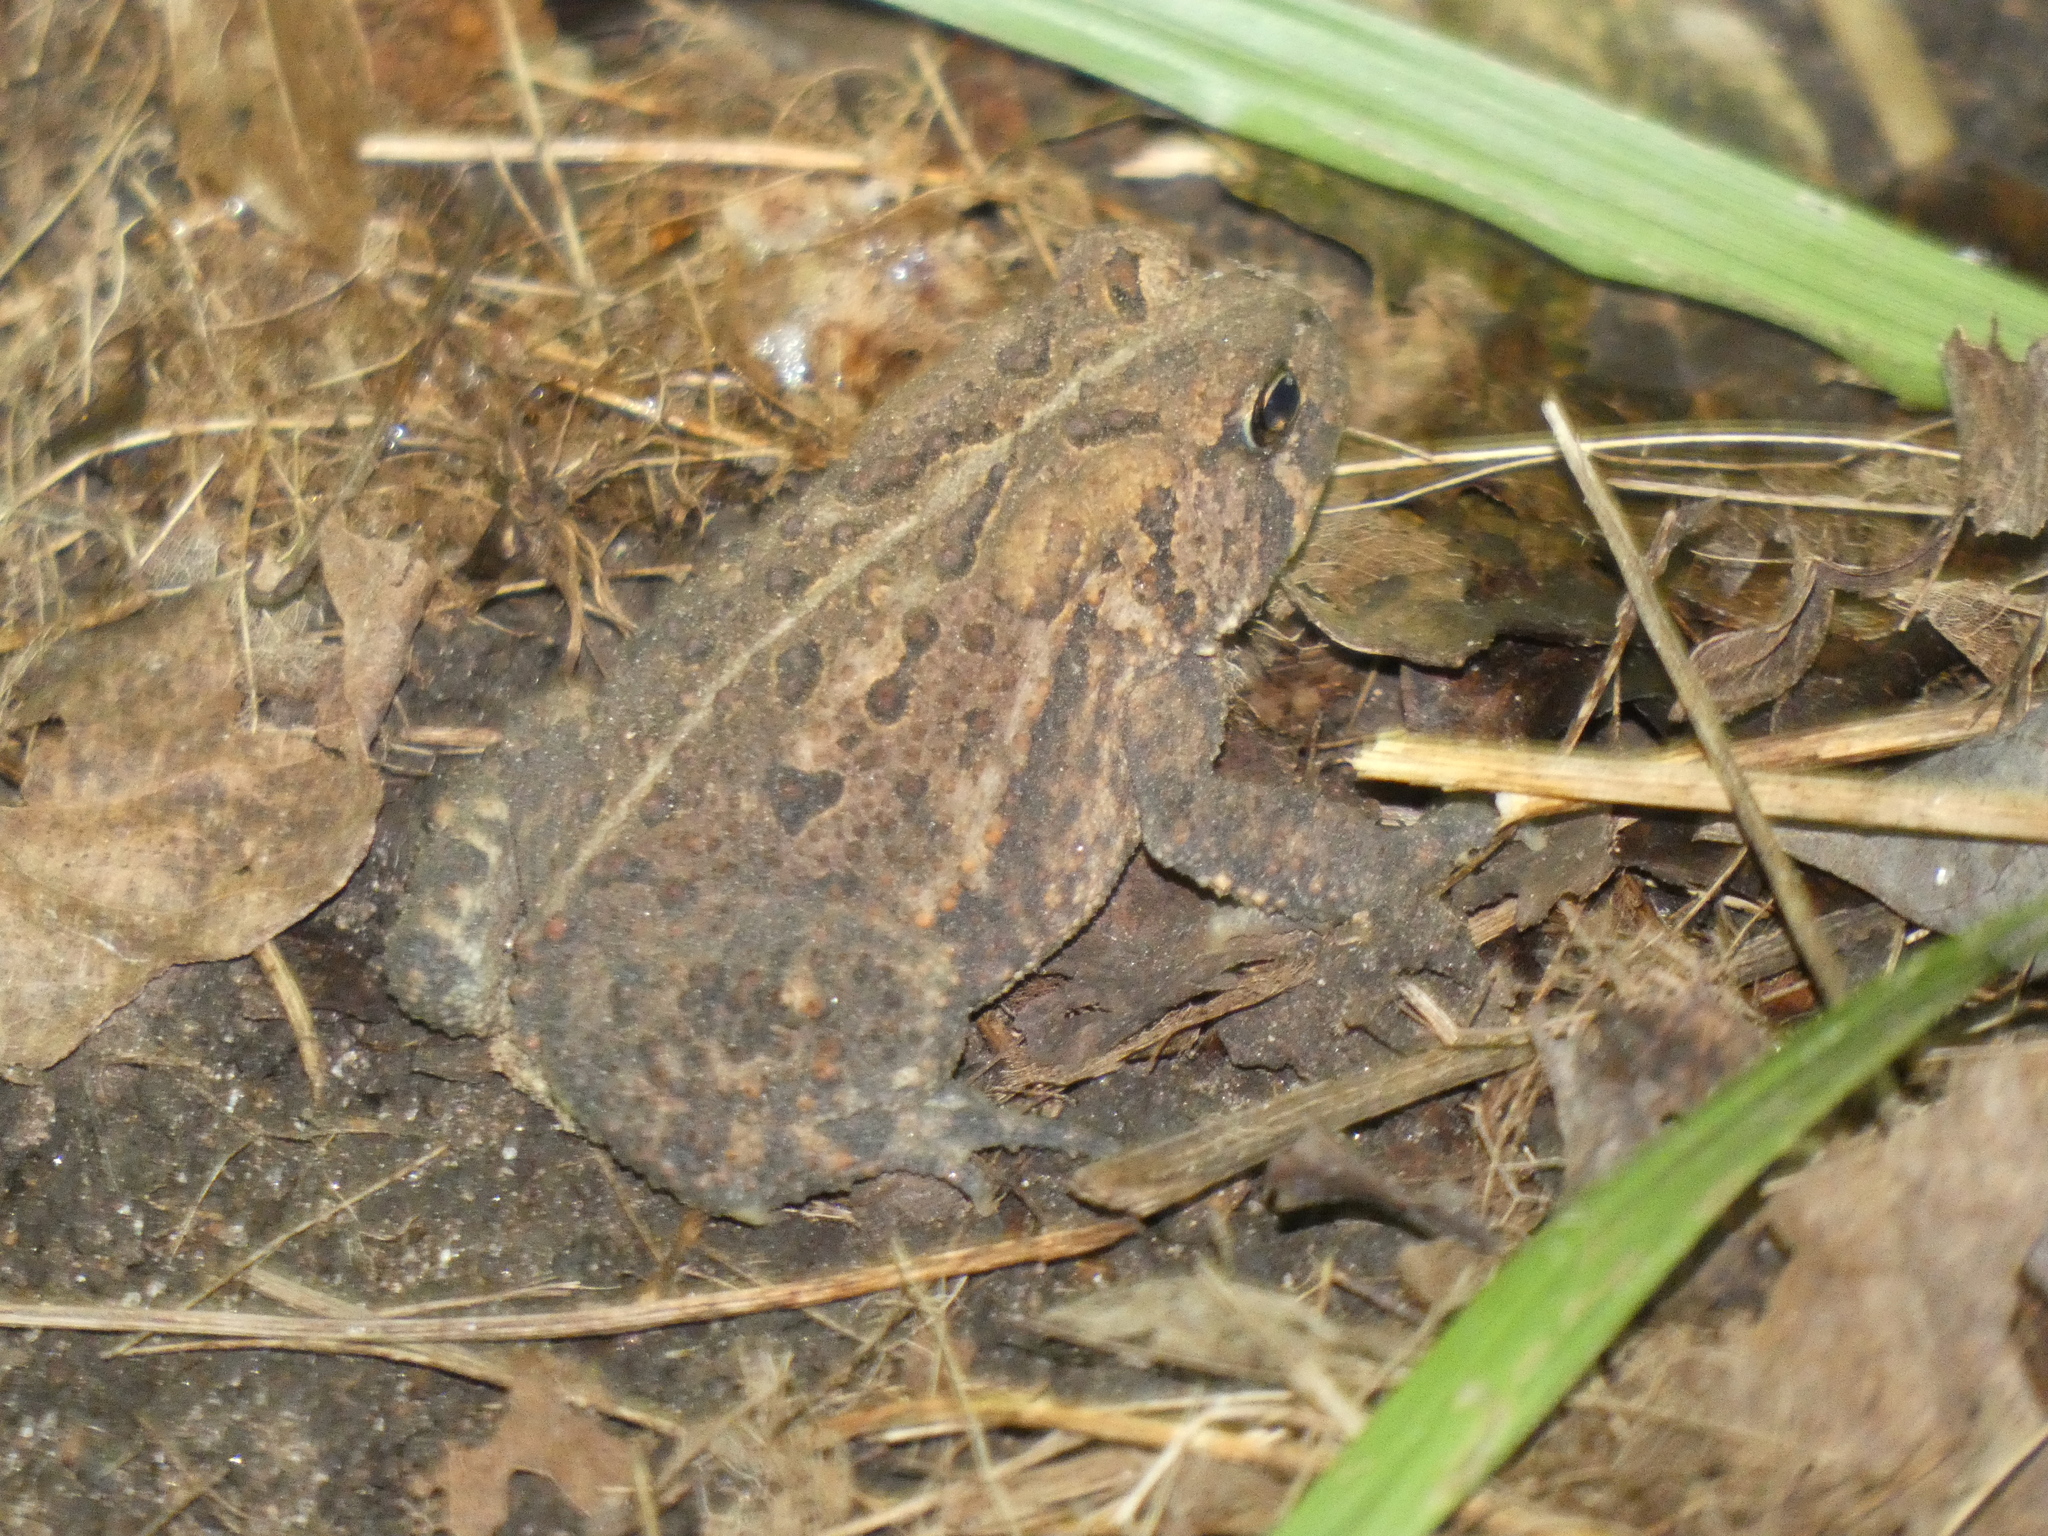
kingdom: Animalia
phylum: Chordata
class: Amphibia
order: Anura
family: Bufonidae
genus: Anaxyrus
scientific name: Anaxyrus americanus
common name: American toad
